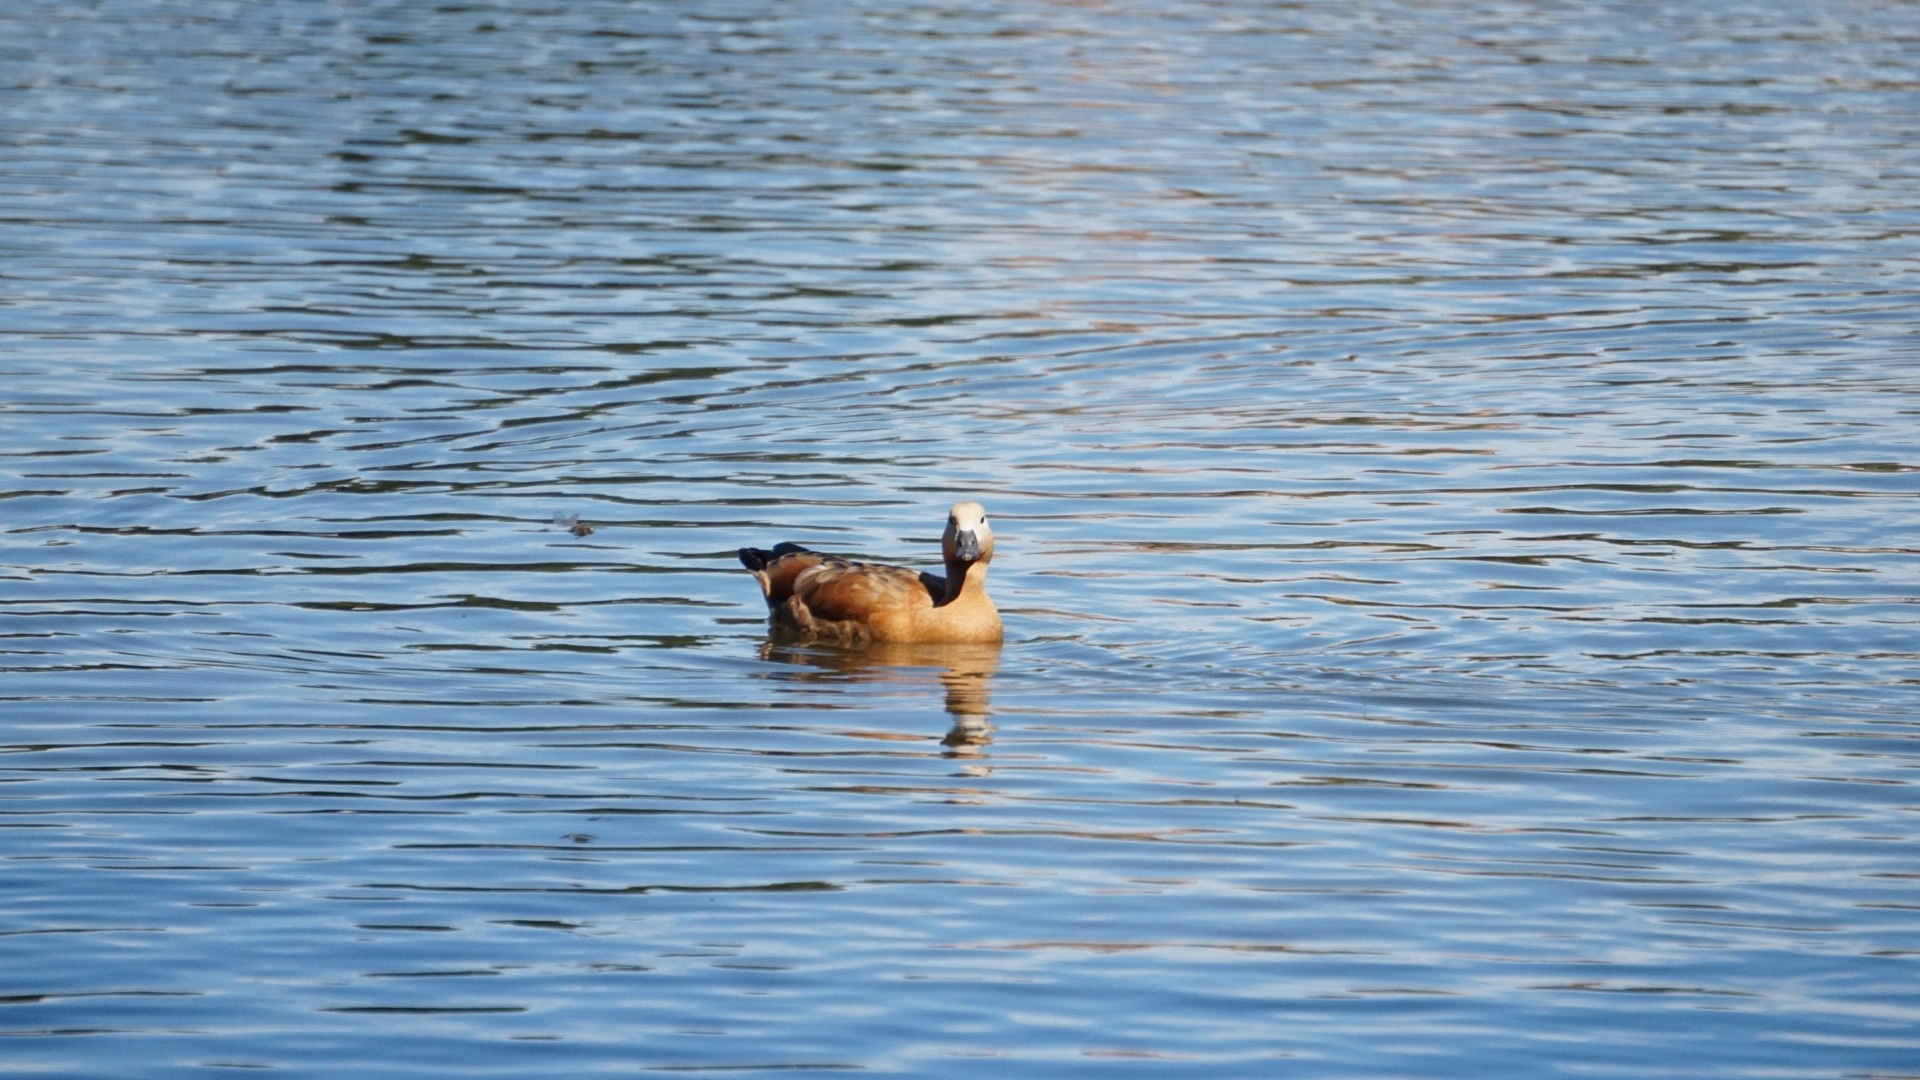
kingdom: Animalia
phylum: Chordata
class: Aves
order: Anseriformes
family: Anatidae
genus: Tadorna
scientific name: Tadorna ferruginea
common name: Ruddy shelduck
